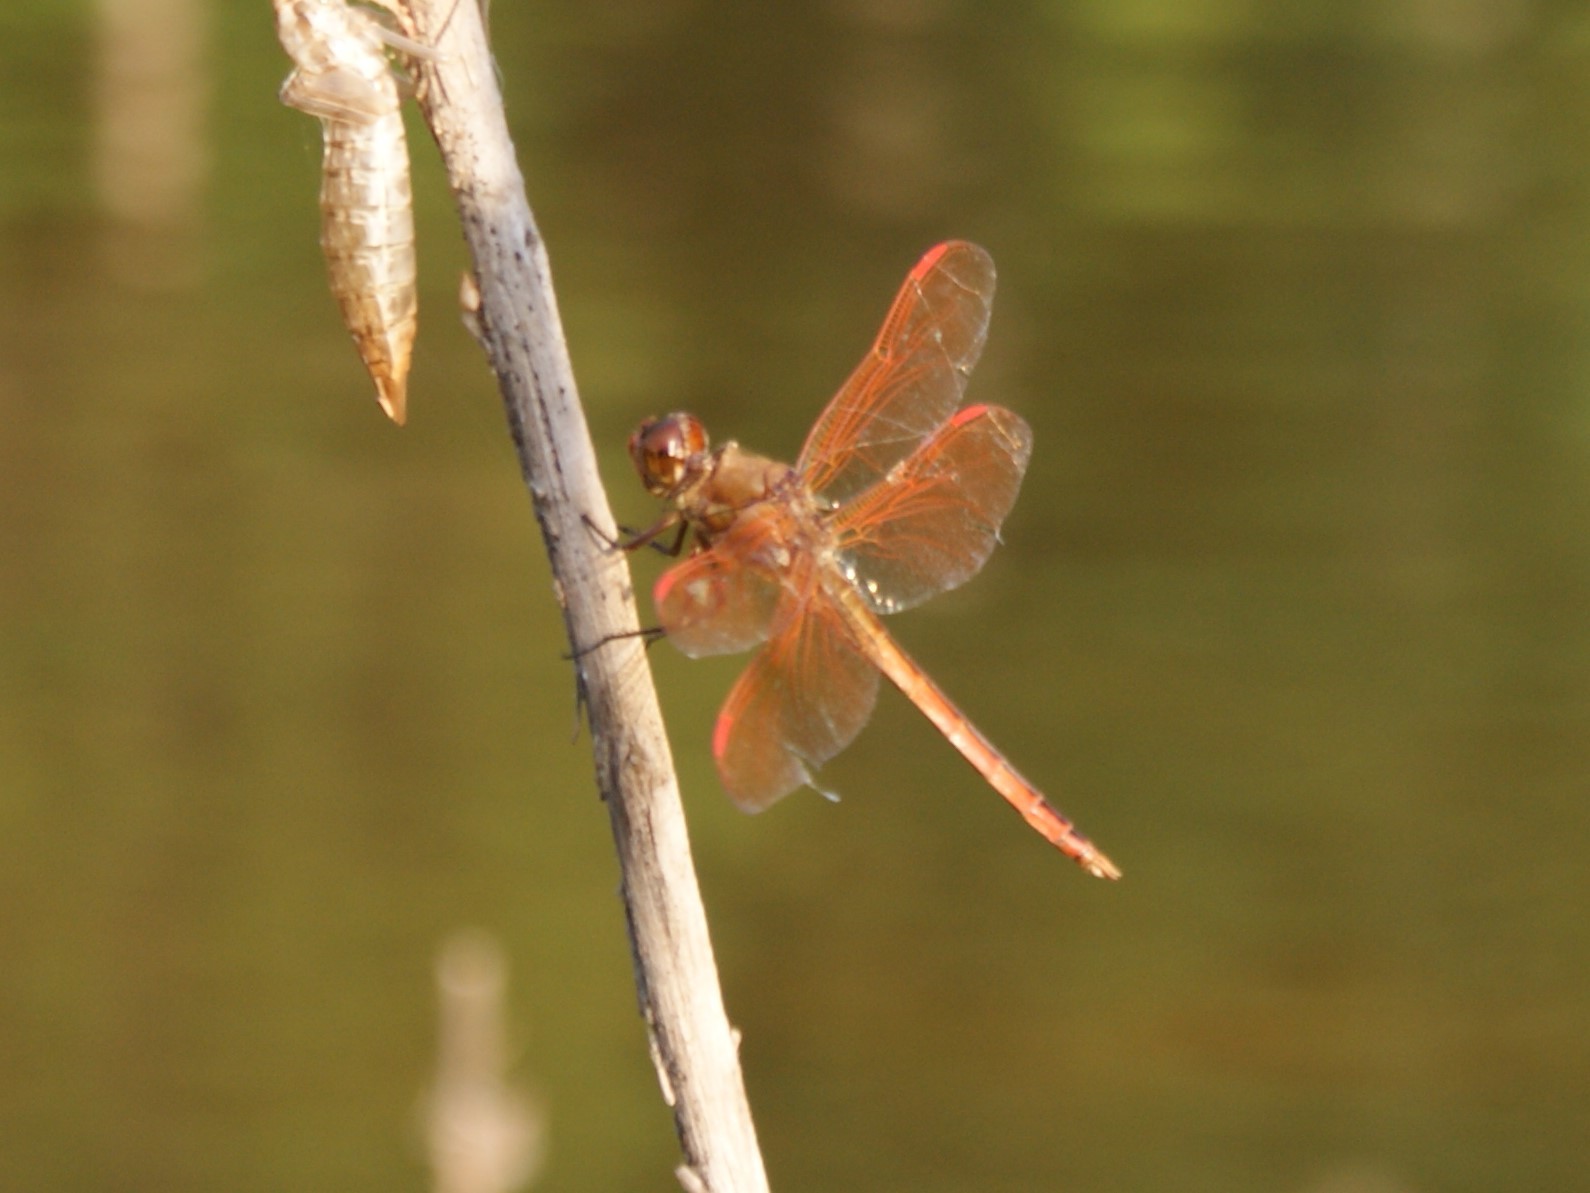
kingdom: Animalia
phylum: Arthropoda
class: Insecta
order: Odonata
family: Libellulidae
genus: Libellula
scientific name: Libellula auripennis
